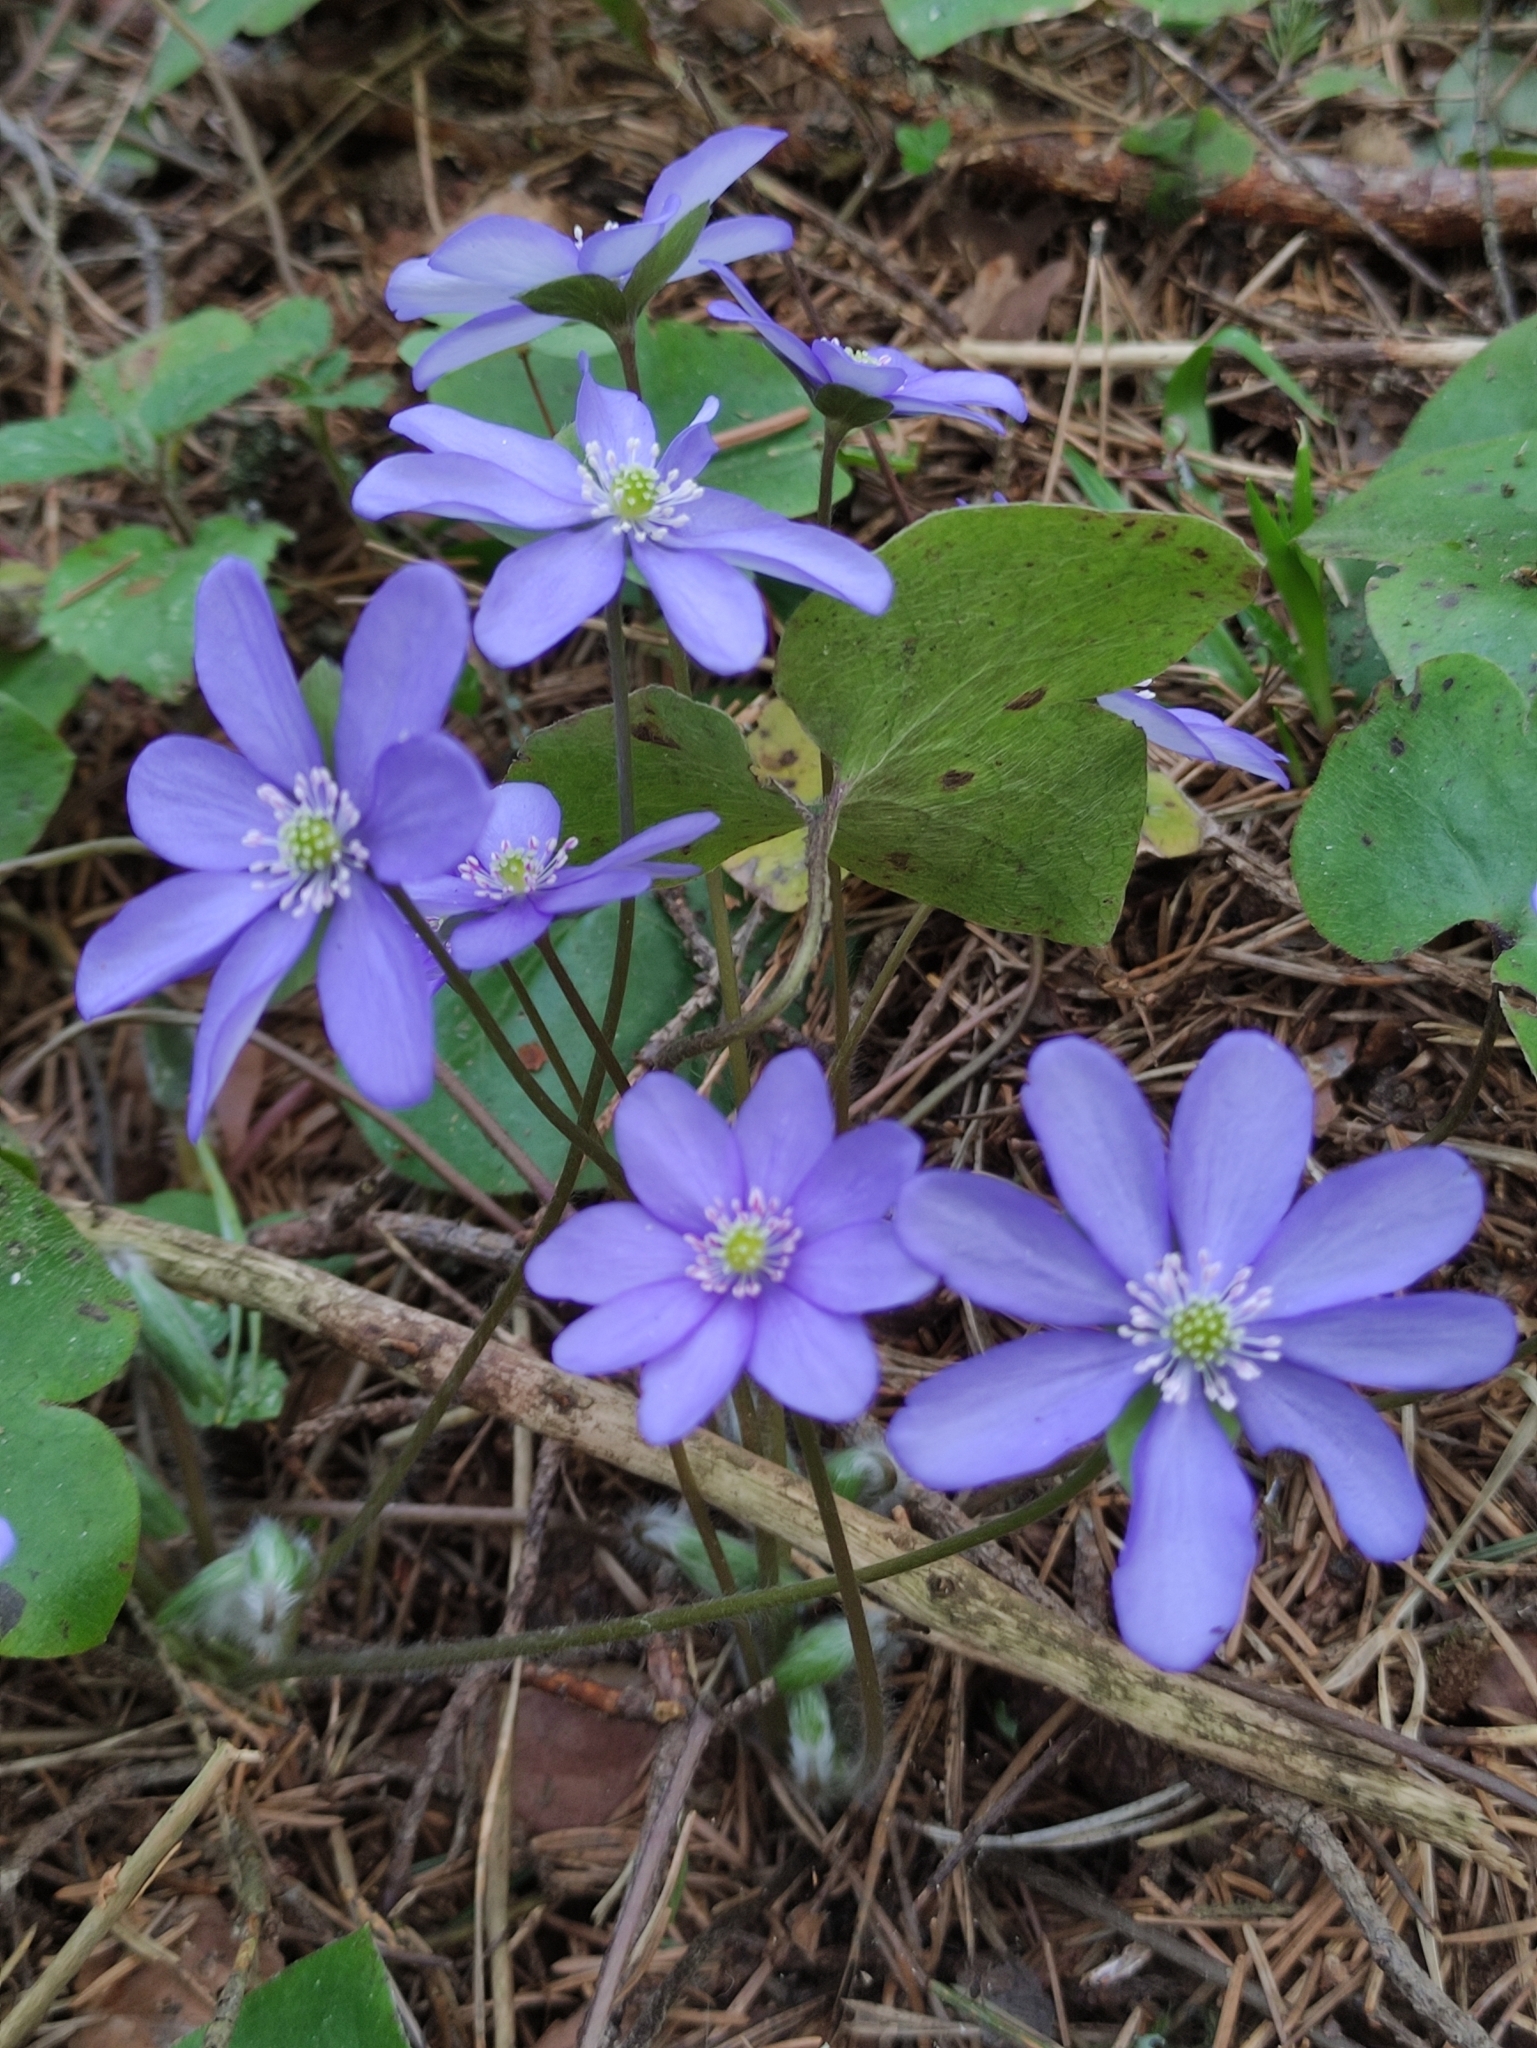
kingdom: Plantae
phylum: Tracheophyta
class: Magnoliopsida
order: Ranunculales
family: Ranunculaceae
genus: Hepatica
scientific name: Hepatica nobilis
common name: Liverleaf
